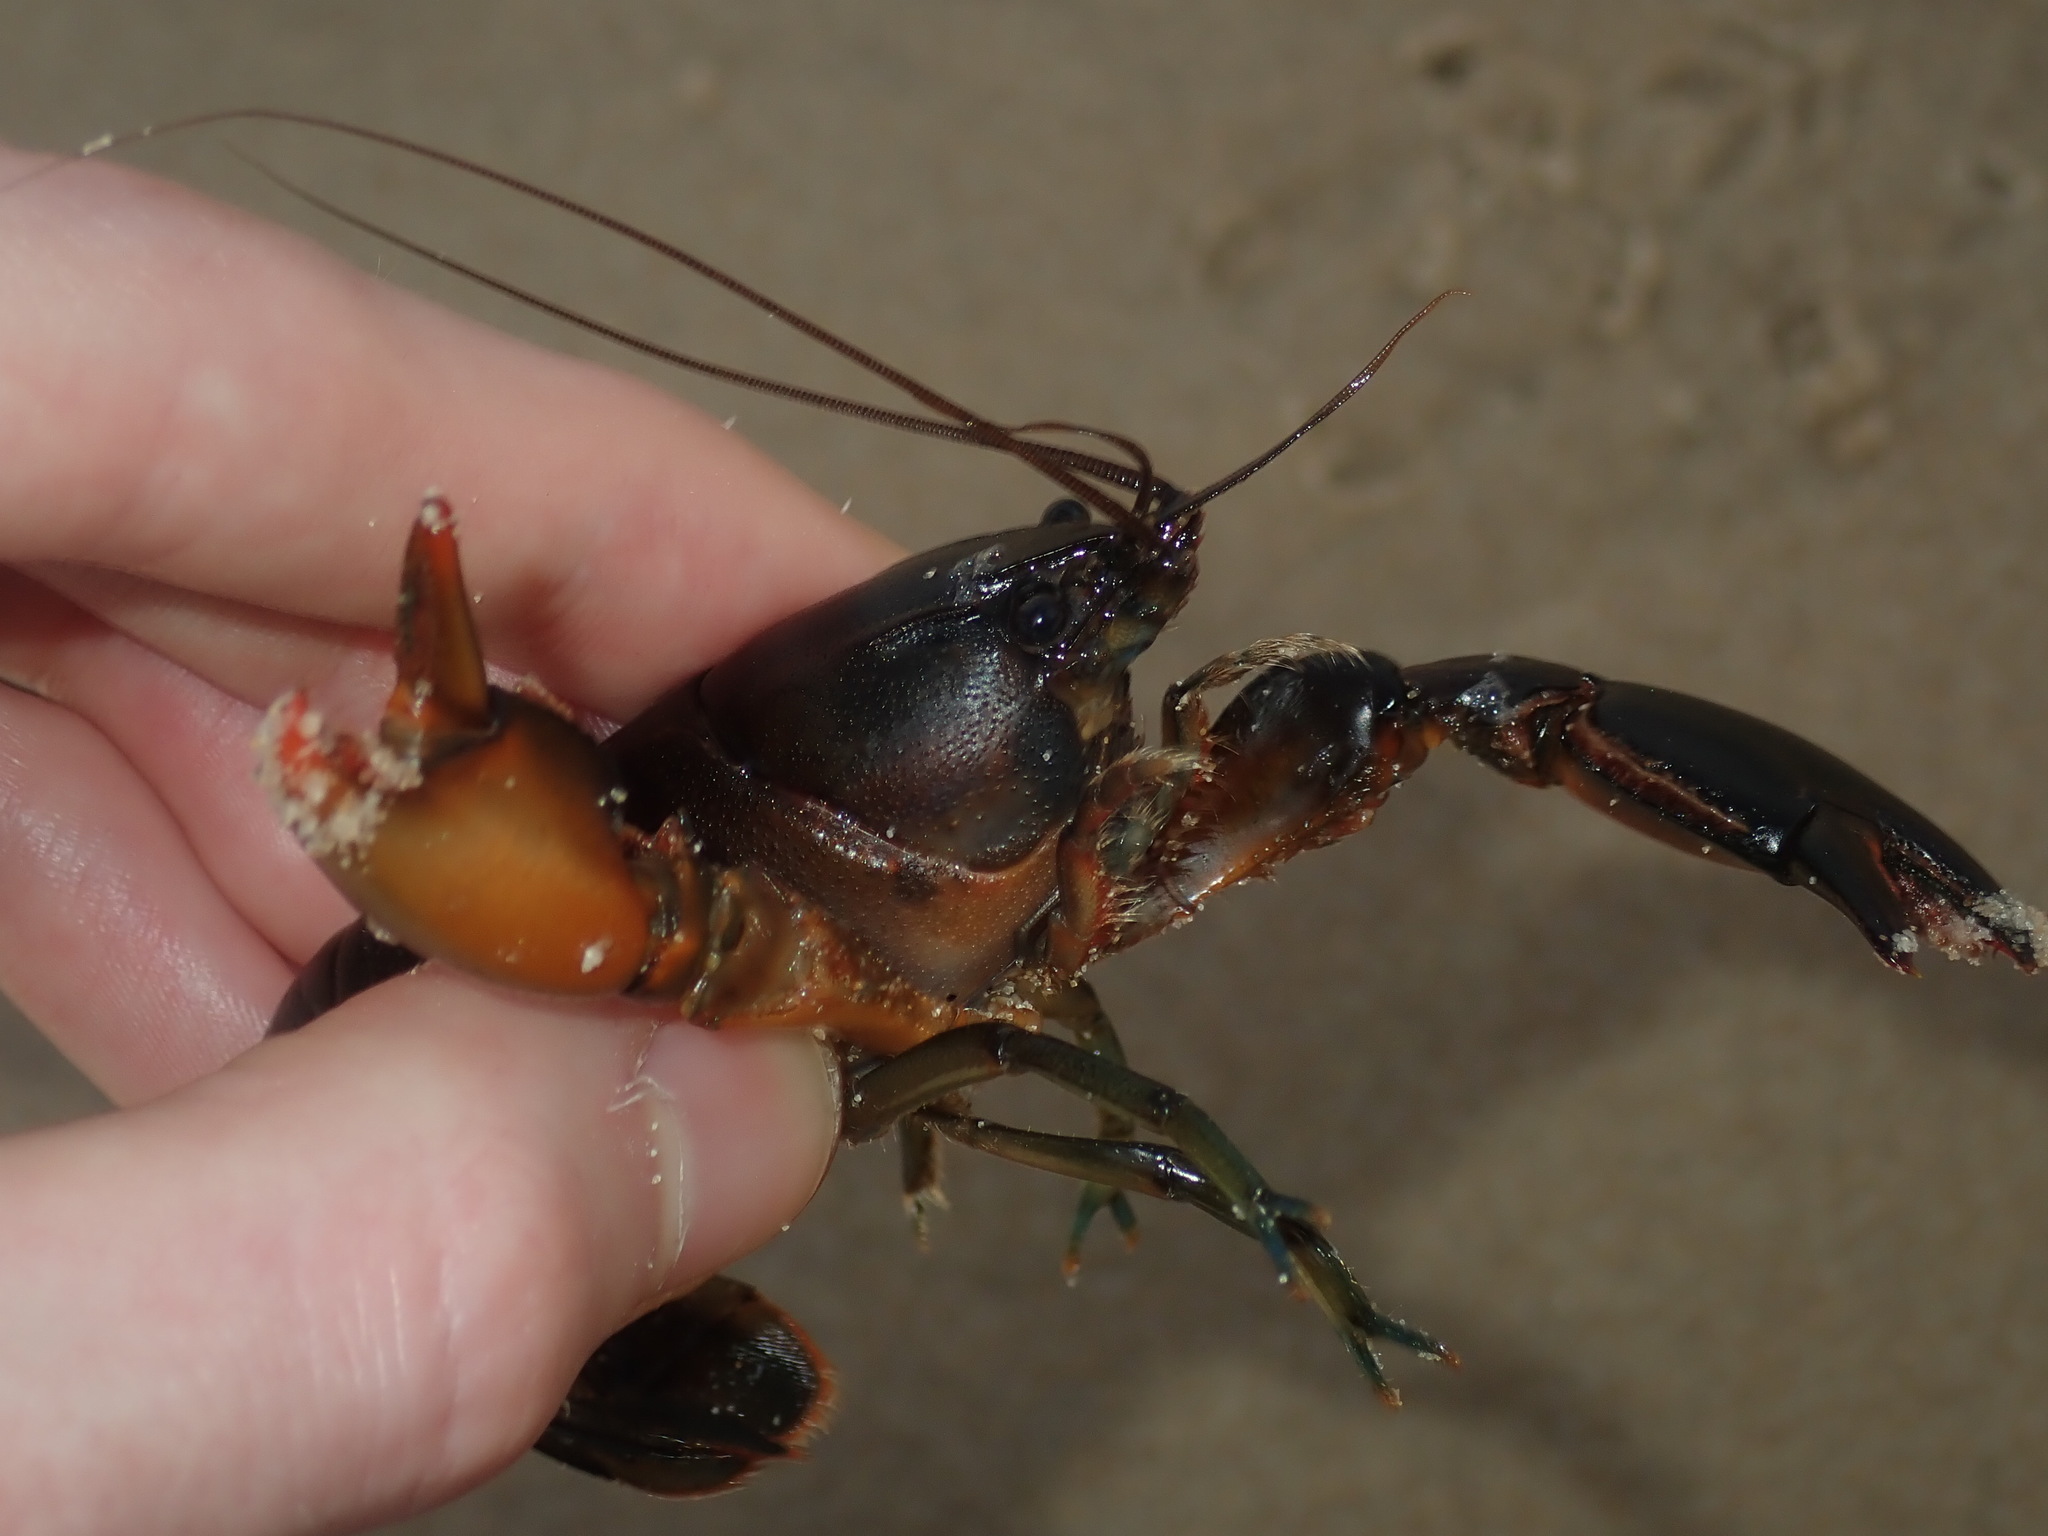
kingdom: Animalia
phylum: Arthropoda
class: Malacostraca
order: Decapoda
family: Parastacidae
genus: Cherax
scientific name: Cherax cuspidatus
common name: Cusped crayfish
